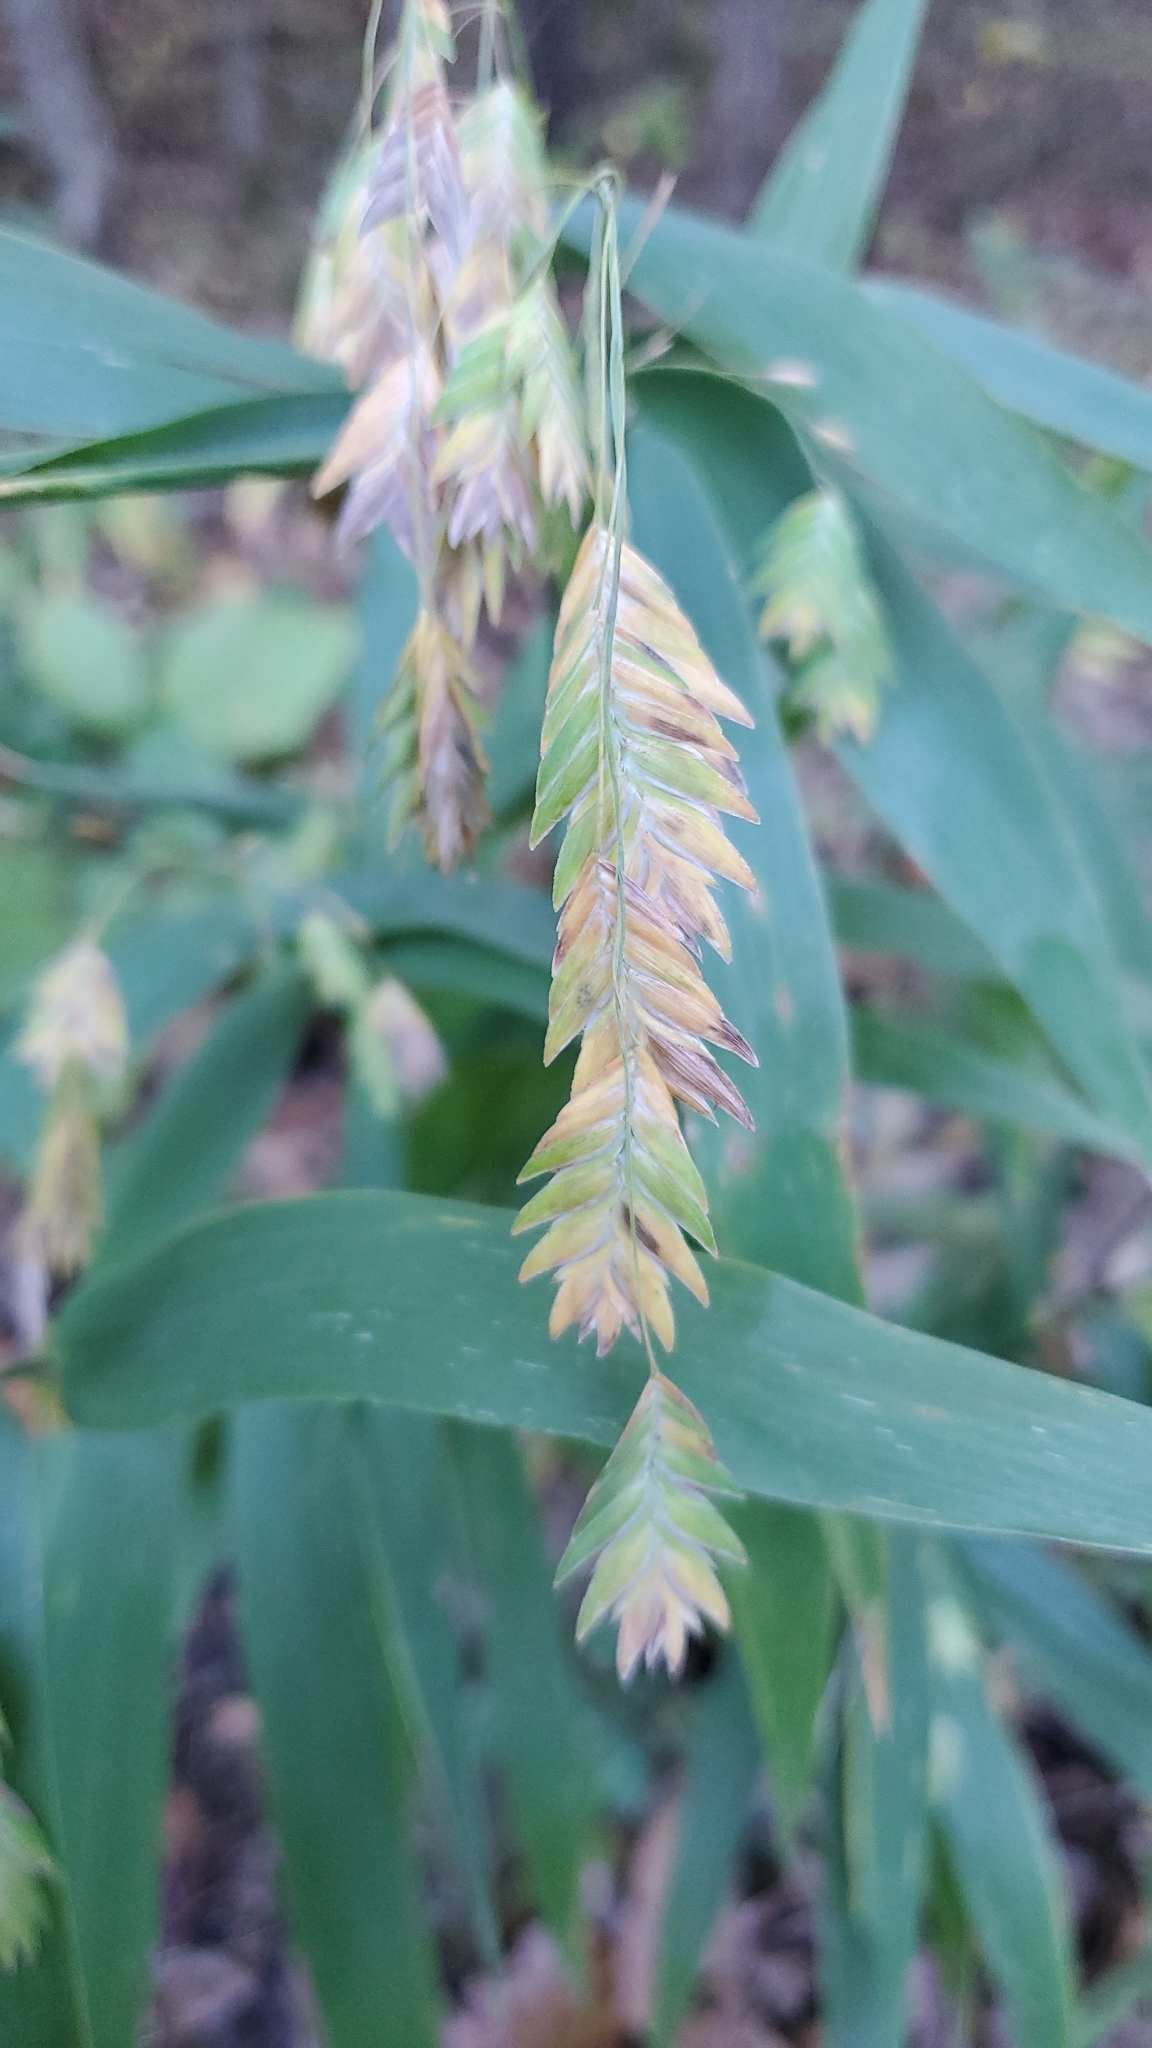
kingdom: Plantae
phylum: Tracheophyta
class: Liliopsida
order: Poales
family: Poaceae
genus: Chasmanthium
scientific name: Chasmanthium latifolium
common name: Broad-leaved chasmanthium
